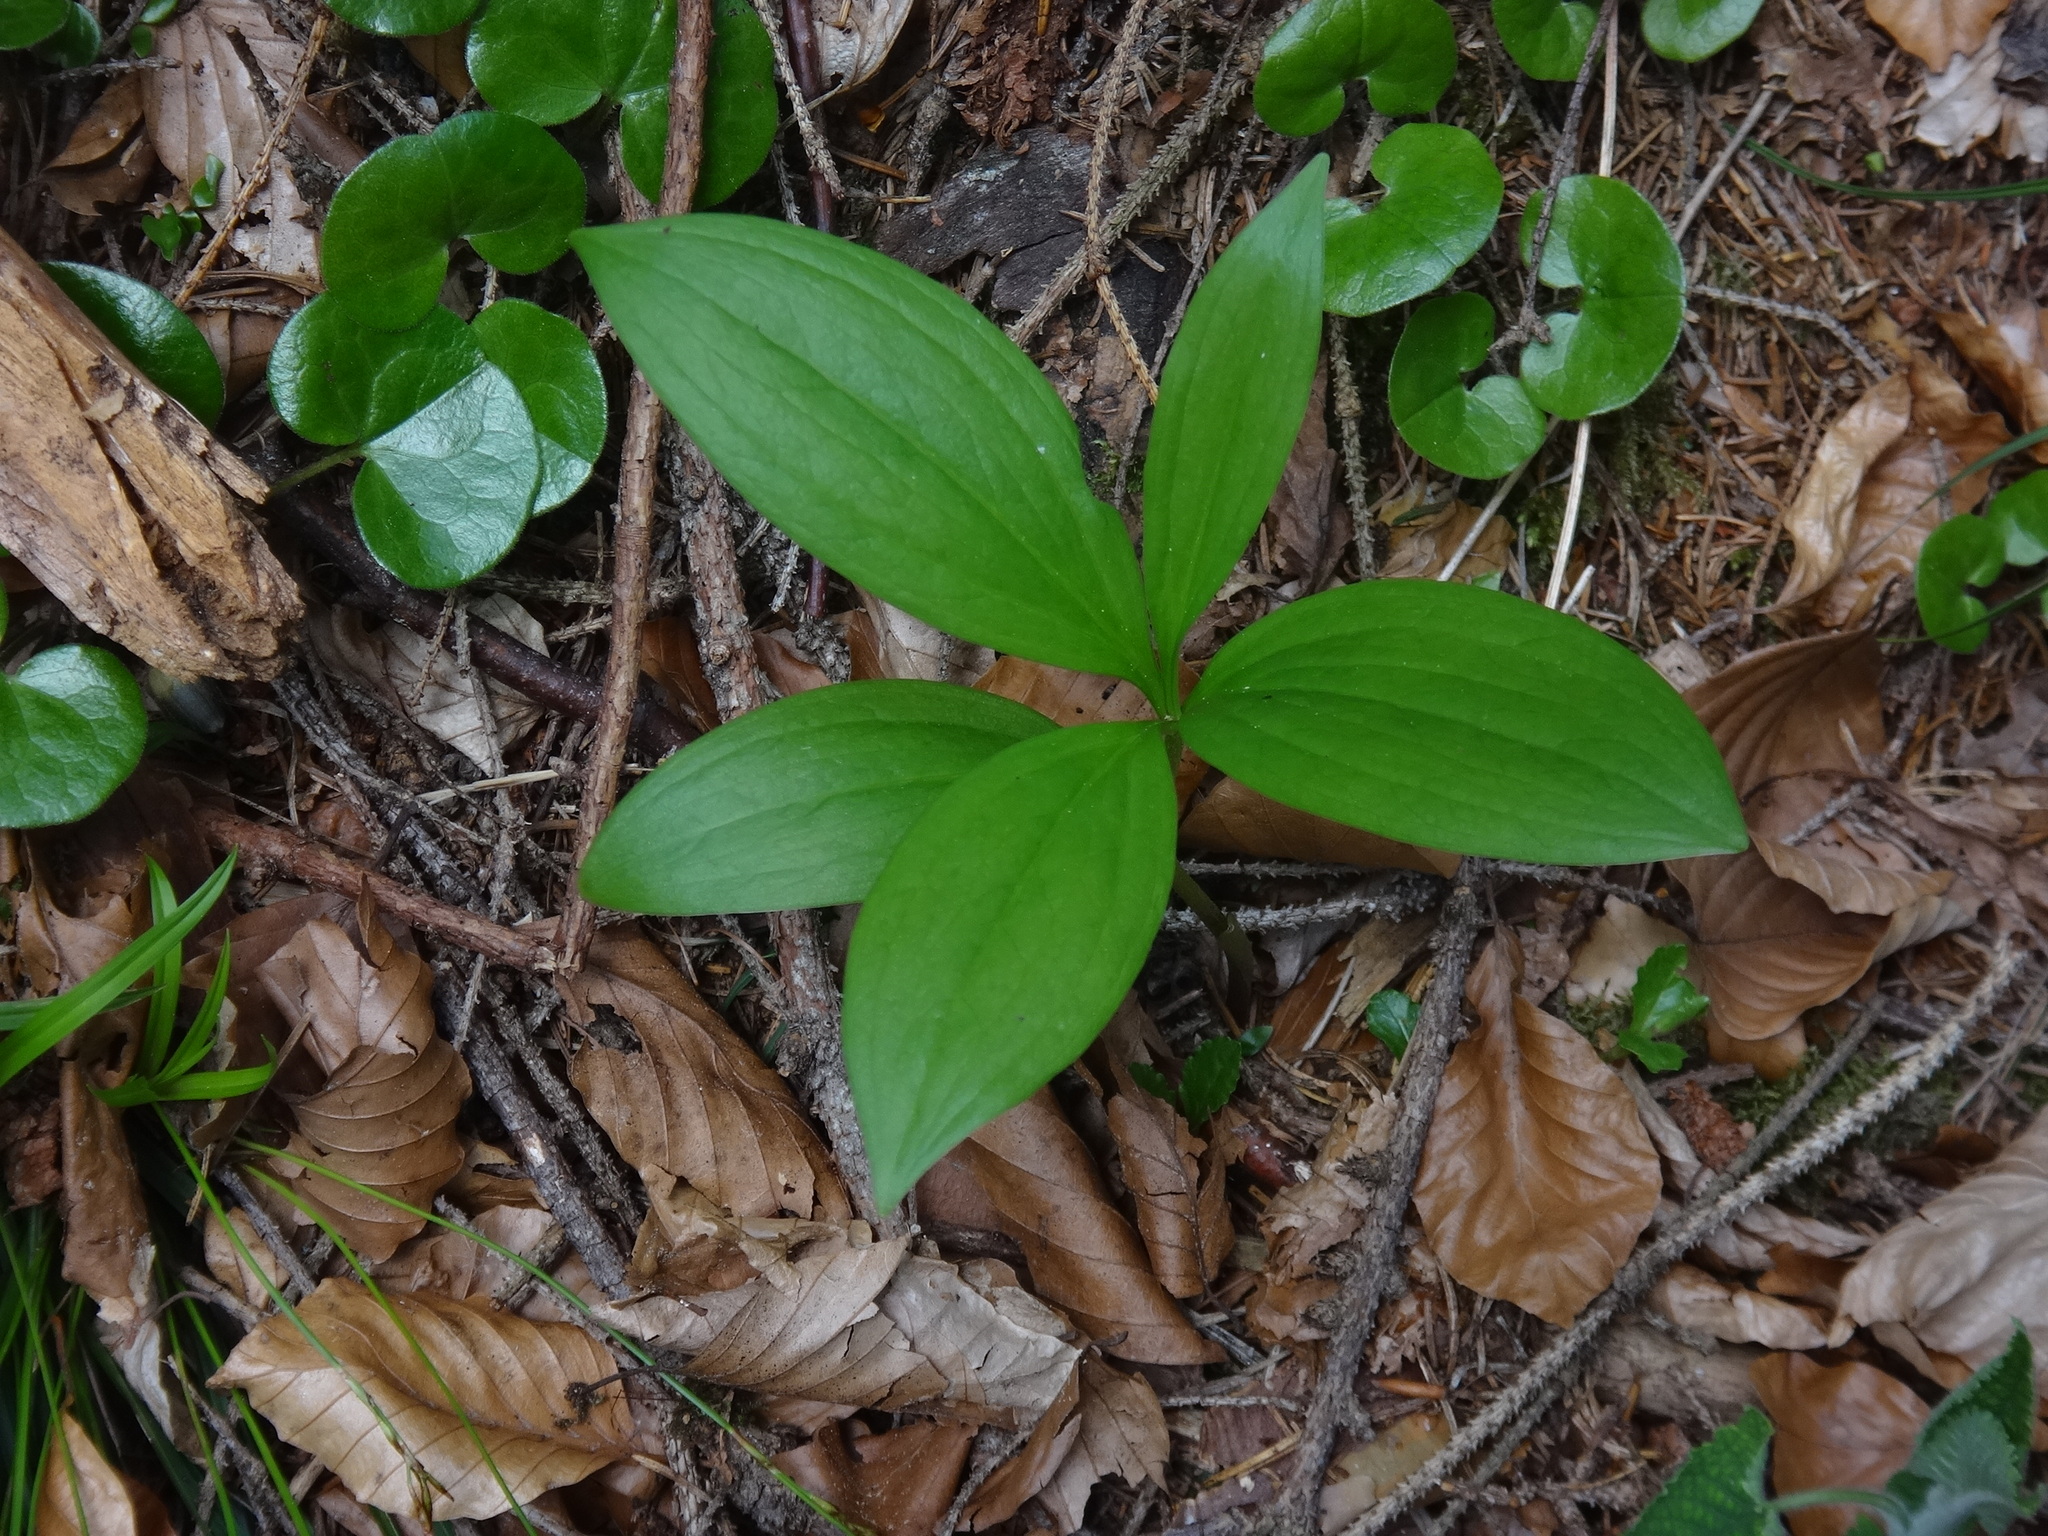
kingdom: Plantae
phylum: Tracheophyta
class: Liliopsida
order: Liliales
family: Liliaceae
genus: Lilium
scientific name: Lilium martagon
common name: Martagon lily
